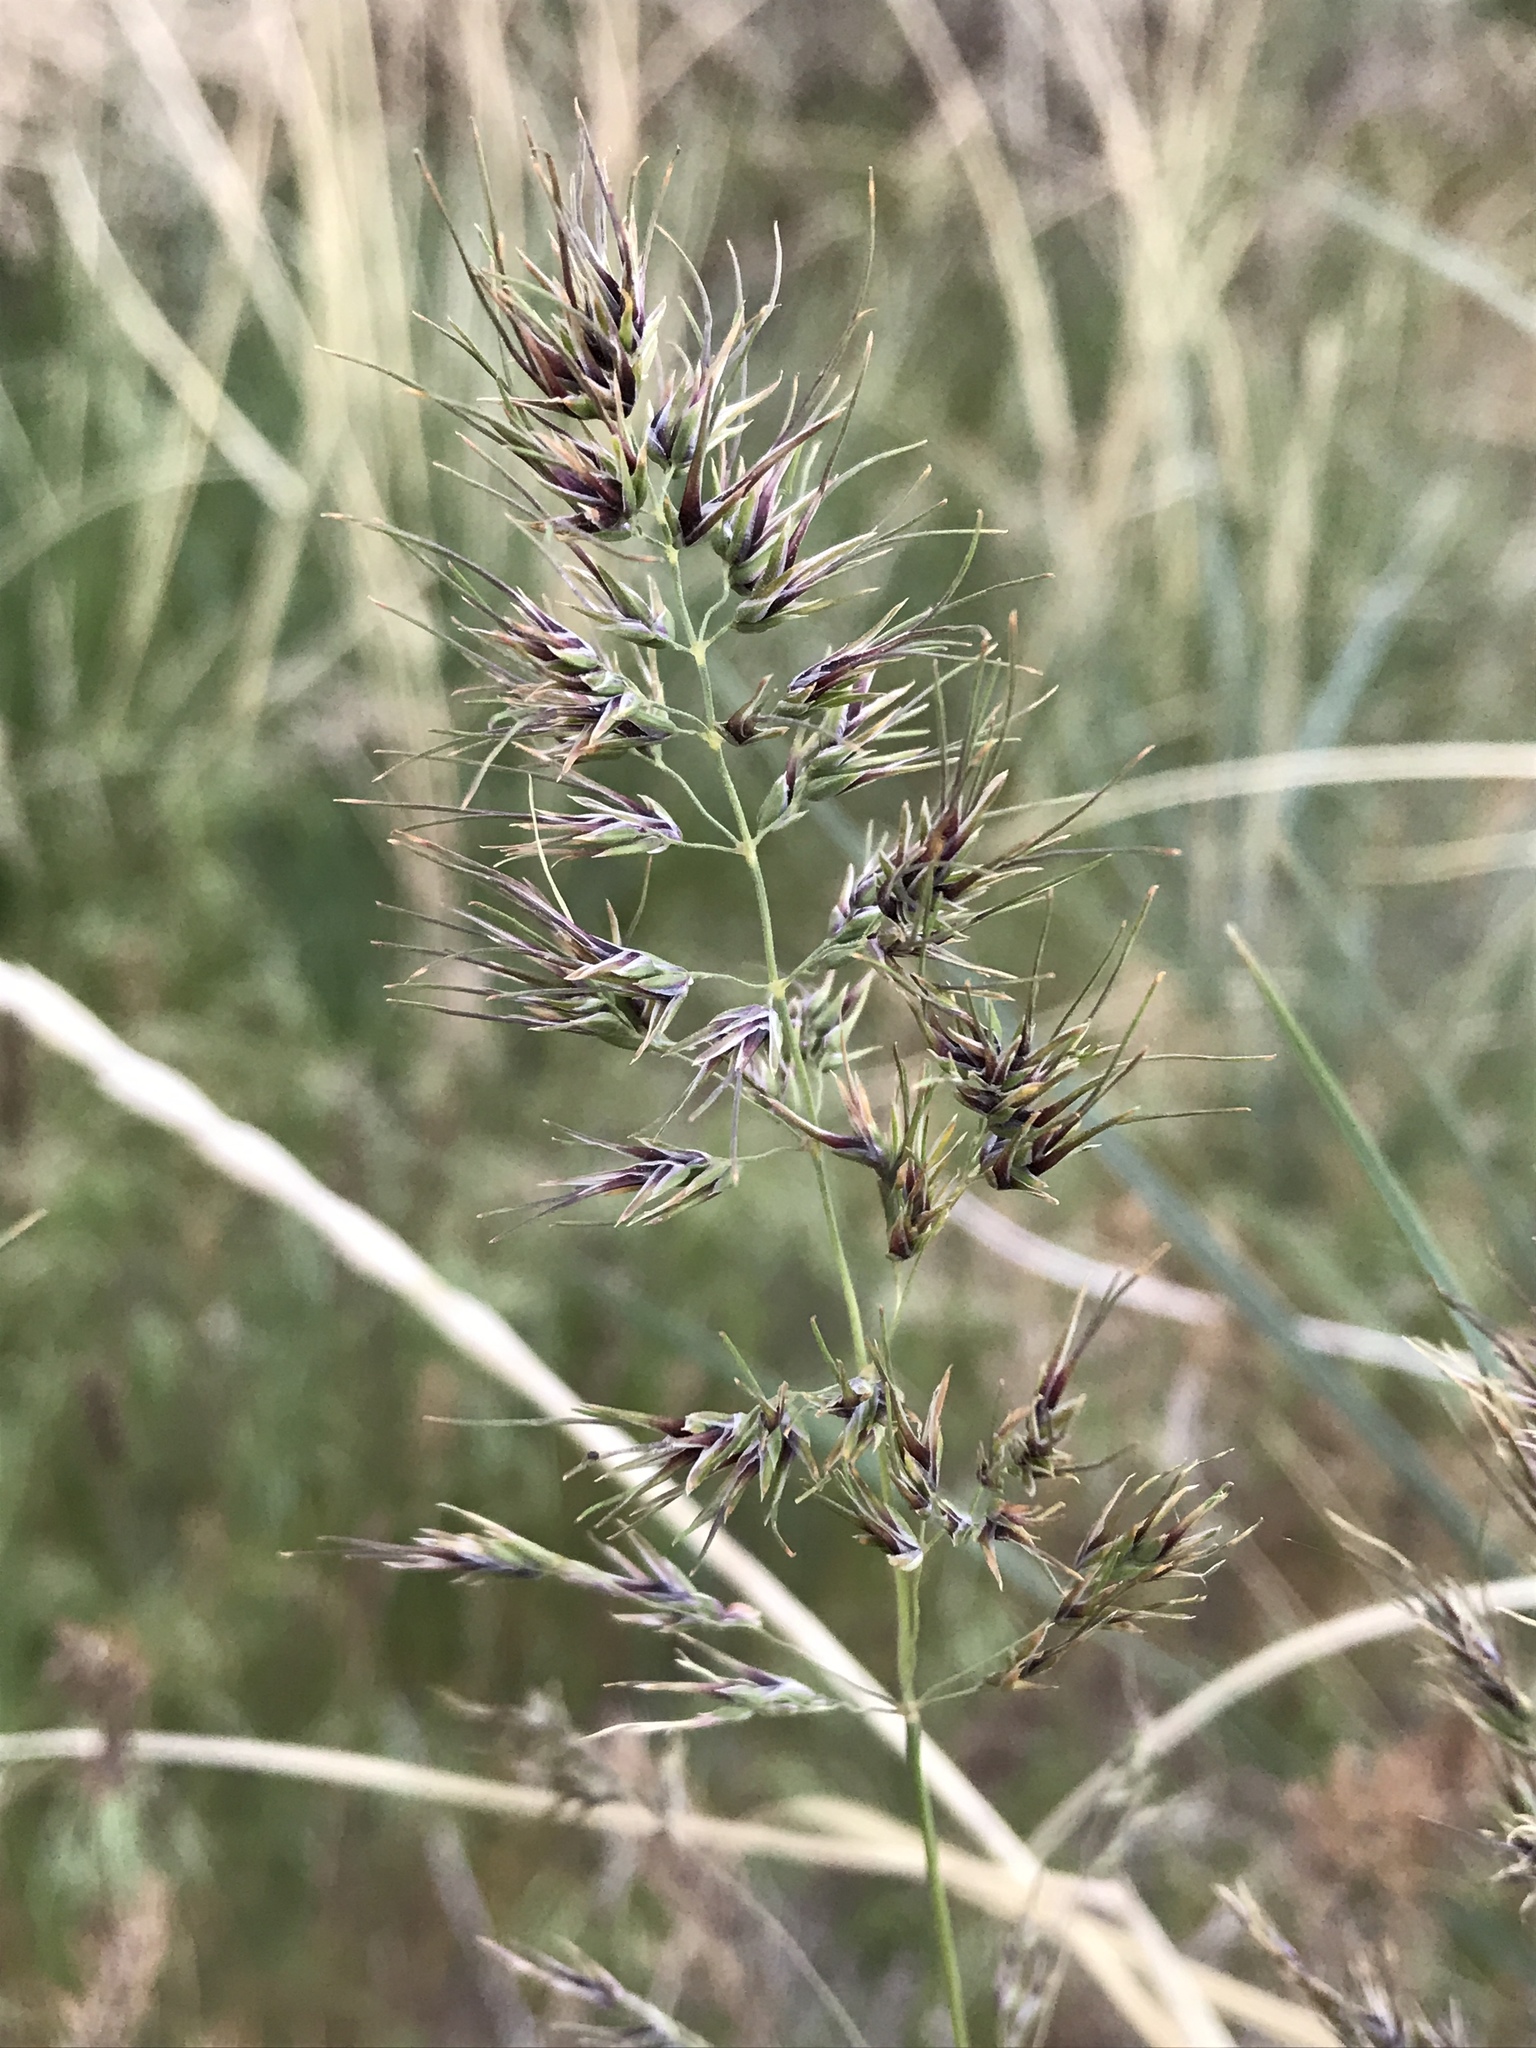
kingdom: Plantae
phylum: Tracheophyta
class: Liliopsida
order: Poales
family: Poaceae
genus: Poa
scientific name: Poa bulbosa
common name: Bulbous bluegrass
